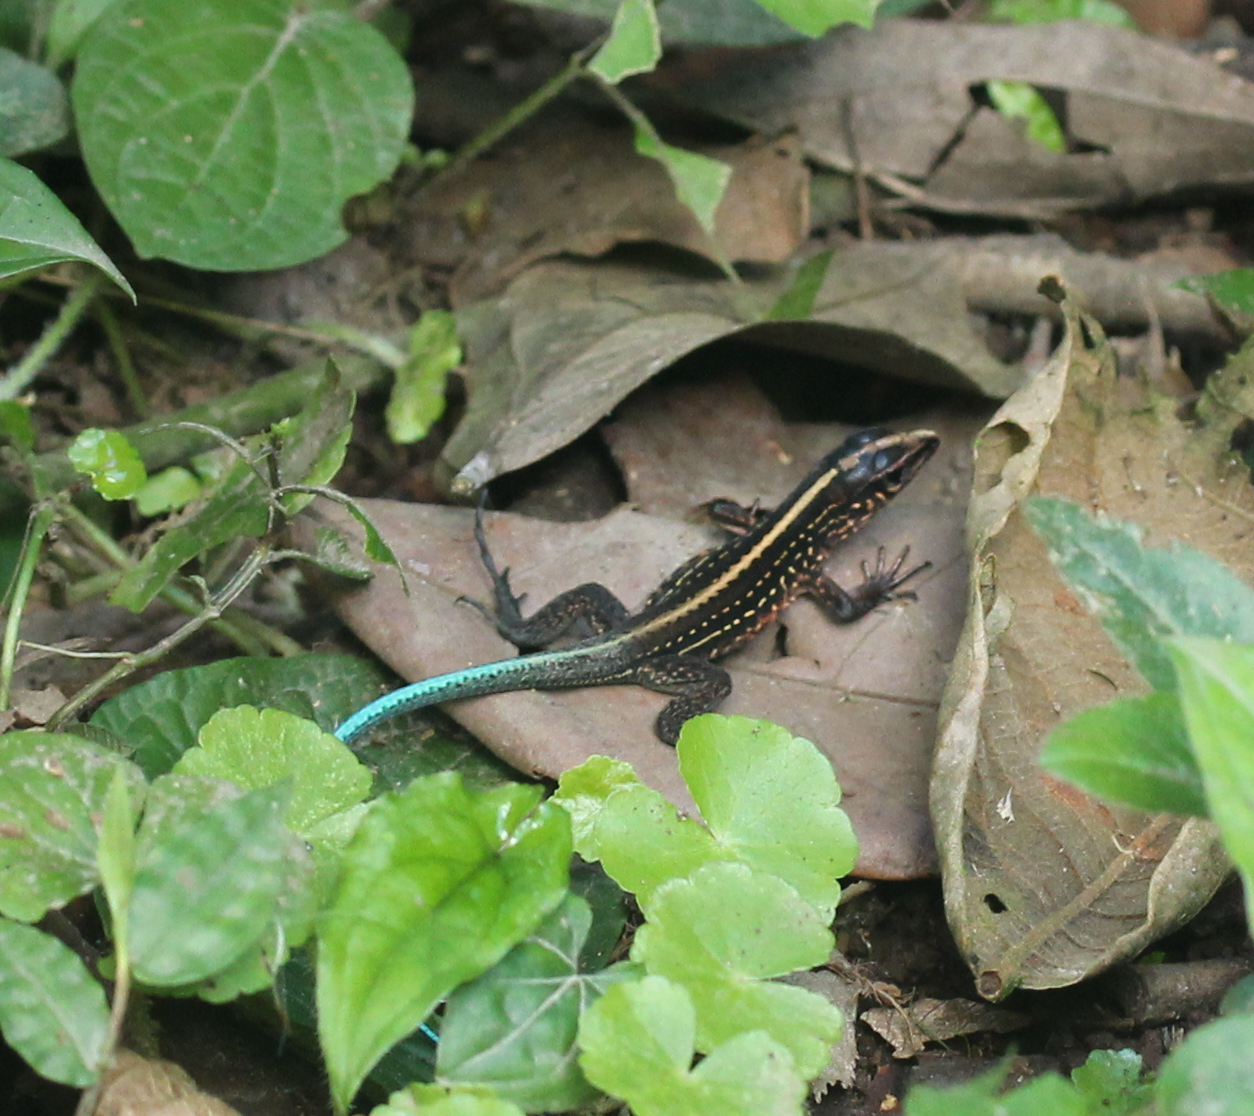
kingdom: Animalia
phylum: Chordata
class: Squamata
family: Teiidae
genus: Holcosus
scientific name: Holcosus festivus
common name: Middle american ameiva
